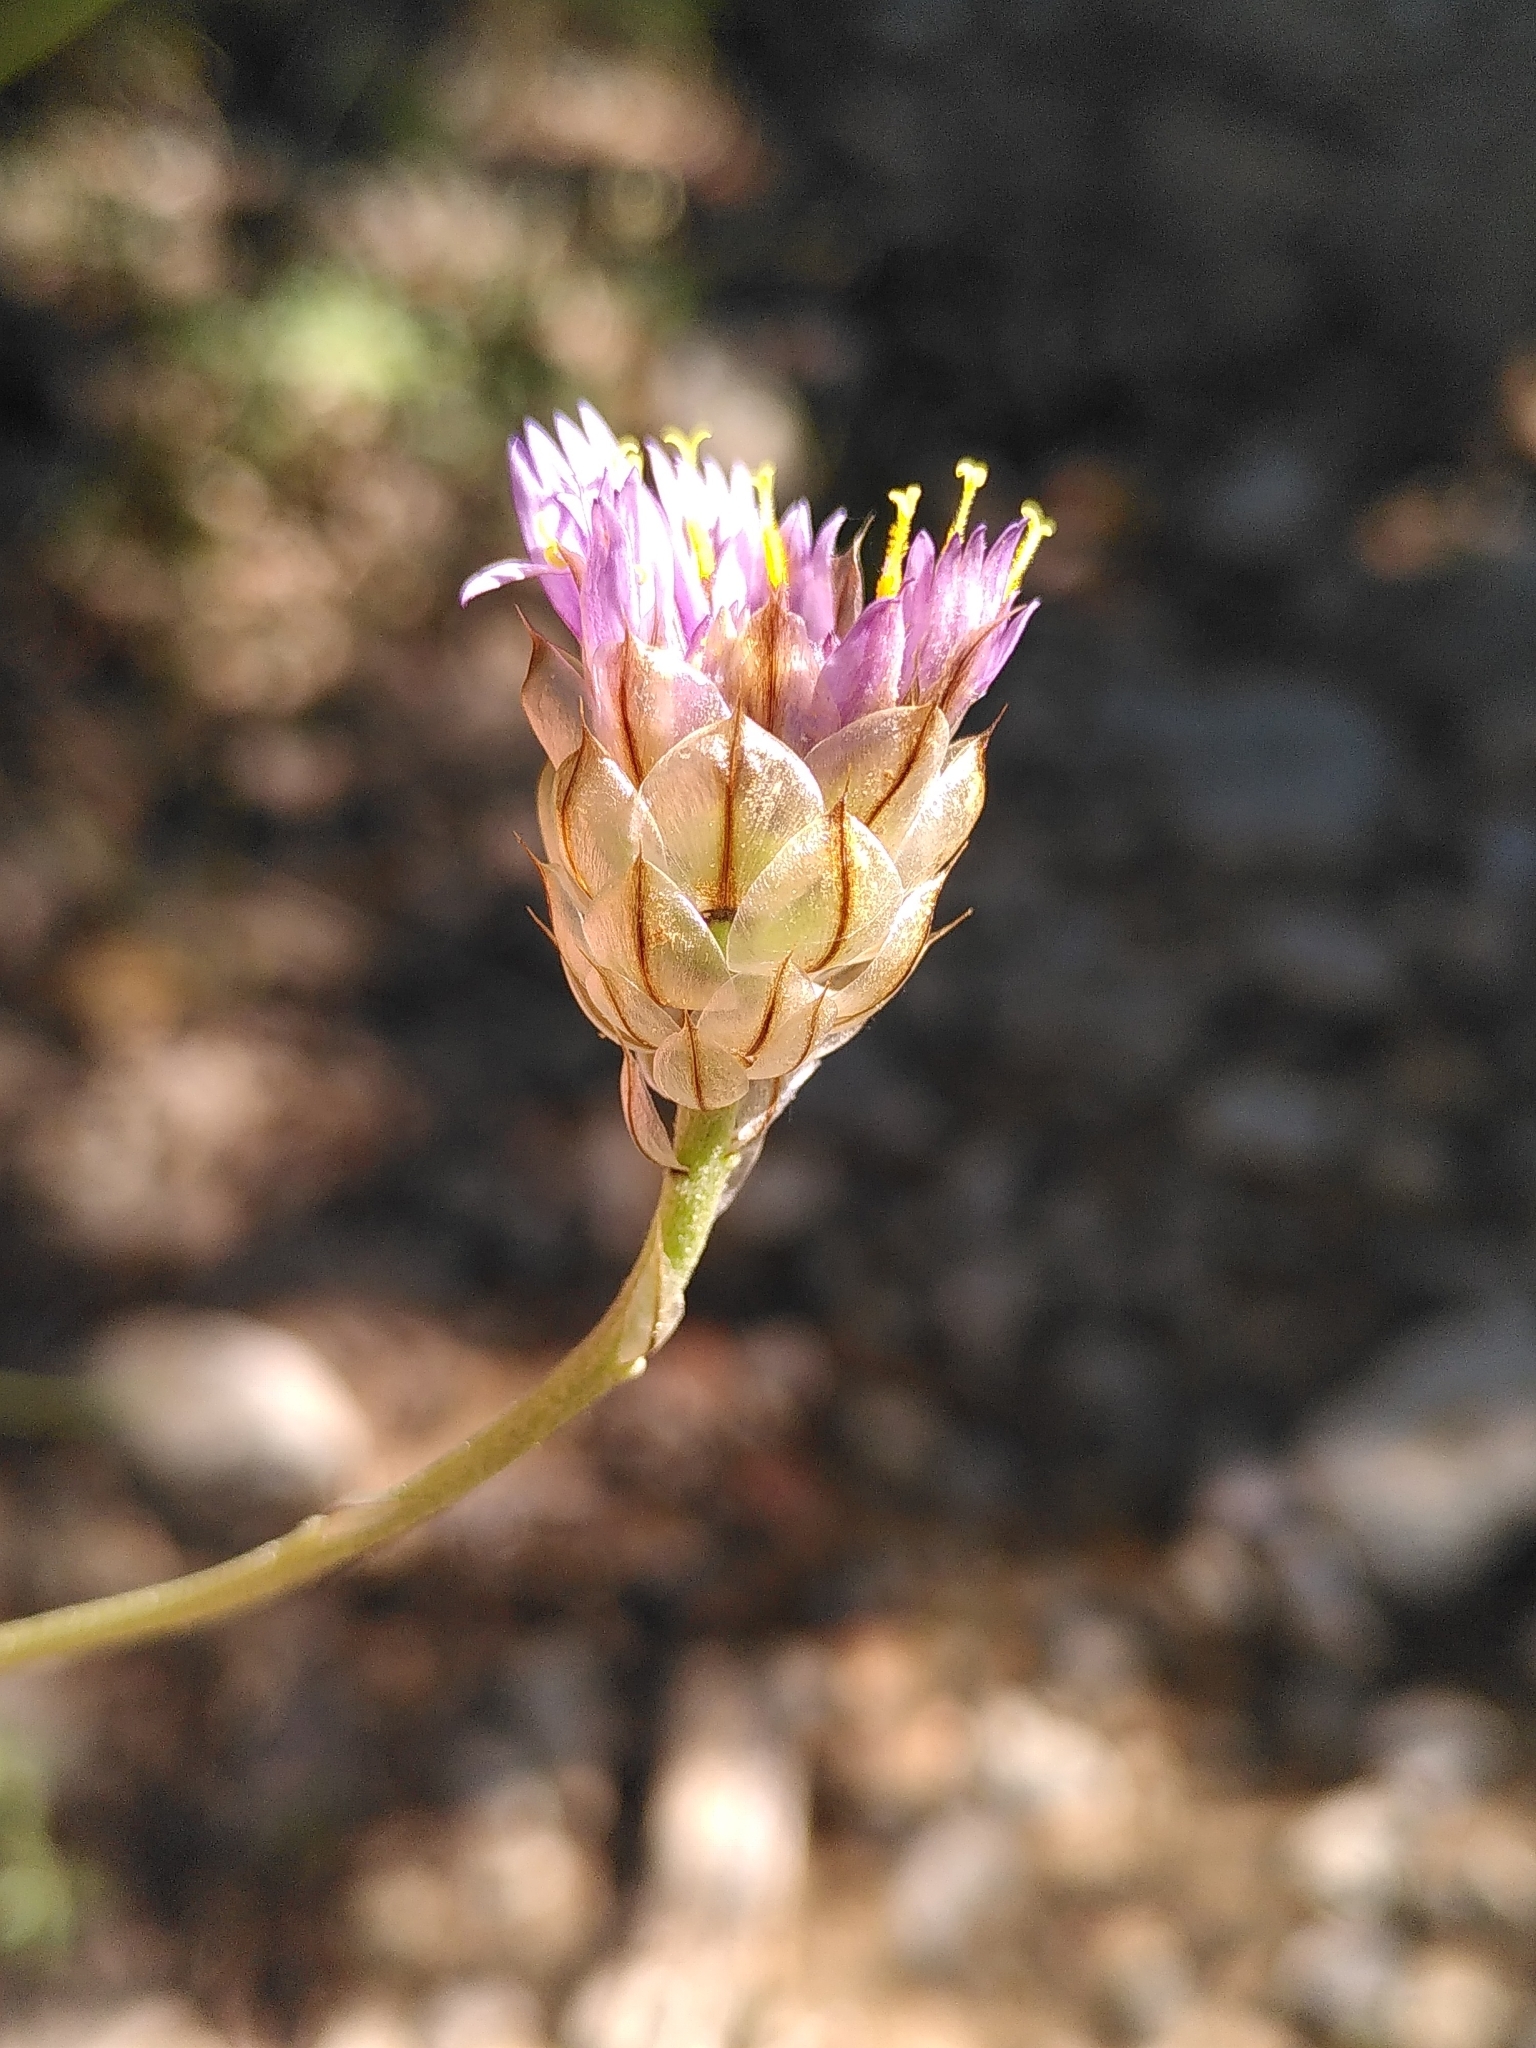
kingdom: Plantae
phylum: Tracheophyta
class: Magnoliopsida
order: Asterales
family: Asteraceae
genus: Catananche
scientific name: Catananche caerulea
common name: Blue cupidone
